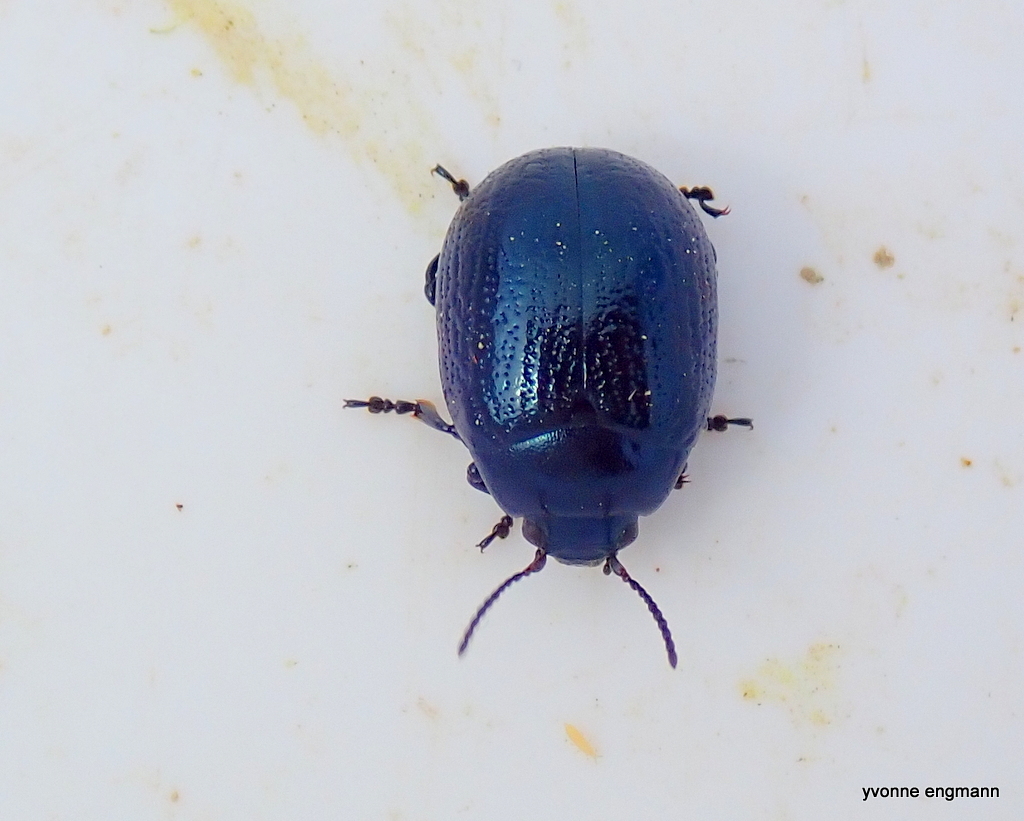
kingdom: Animalia
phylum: Arthropoda
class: Insecta
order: Coleoptera
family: Chrysomelidae
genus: Chrysolina
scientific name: Chrysolina haemoptera
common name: Plantain leaf beetle
